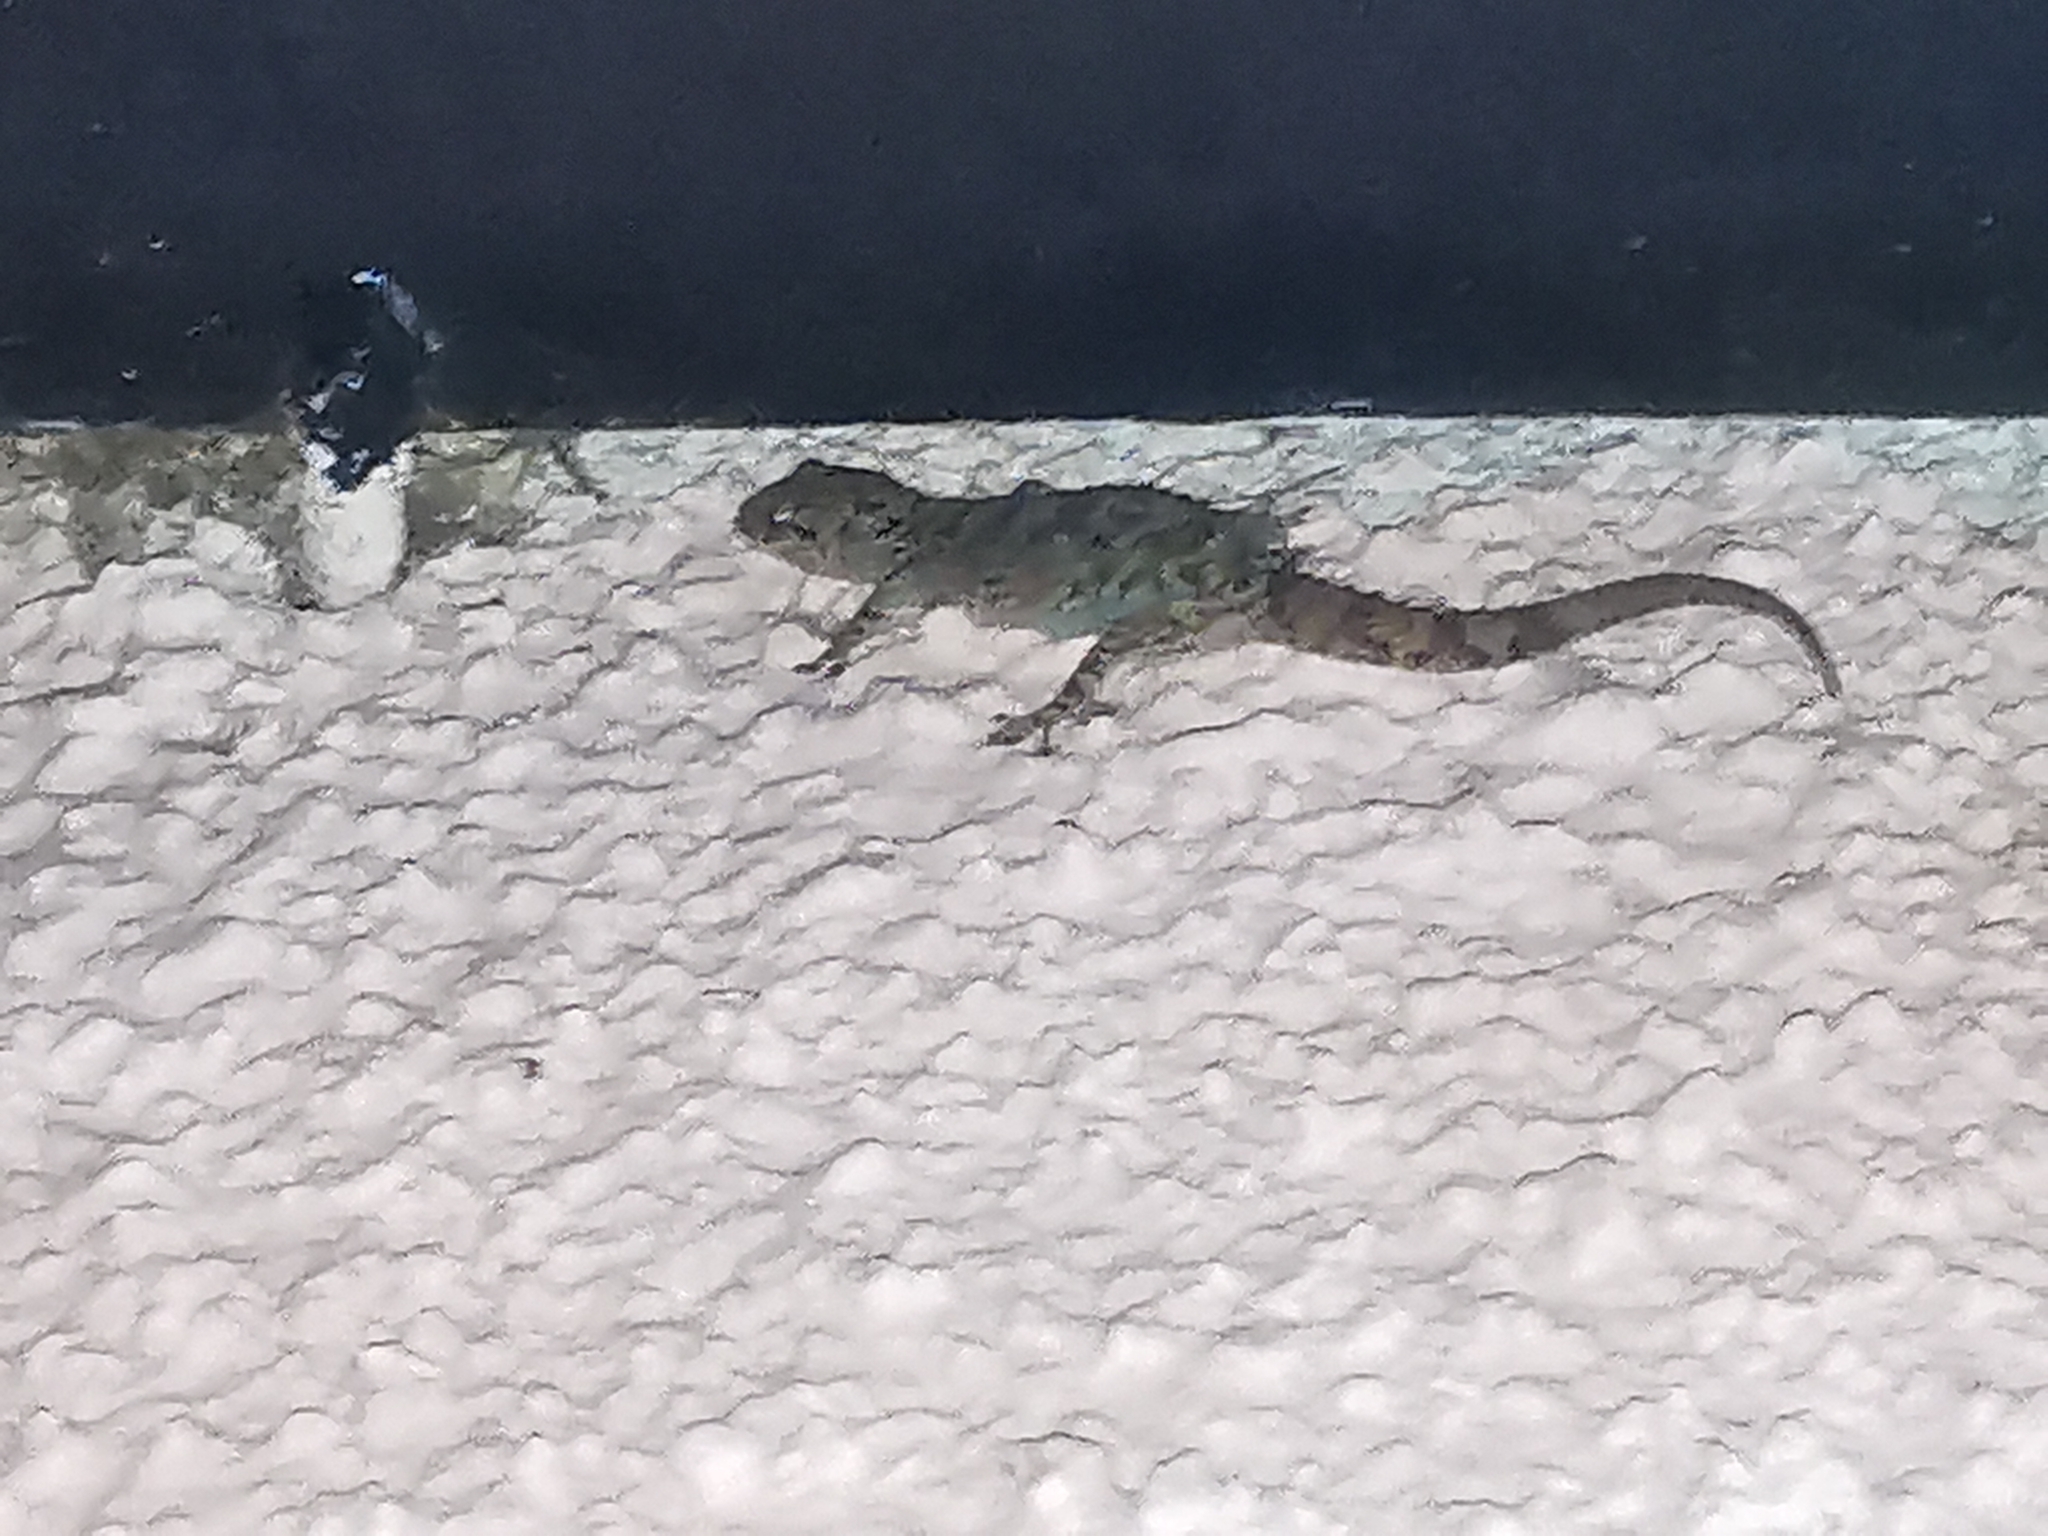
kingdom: Animalia
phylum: Chordata
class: Squamata
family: Gekkonidae
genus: Hemidactylus
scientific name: Hemidactylus turcicus
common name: Turkish gecko
